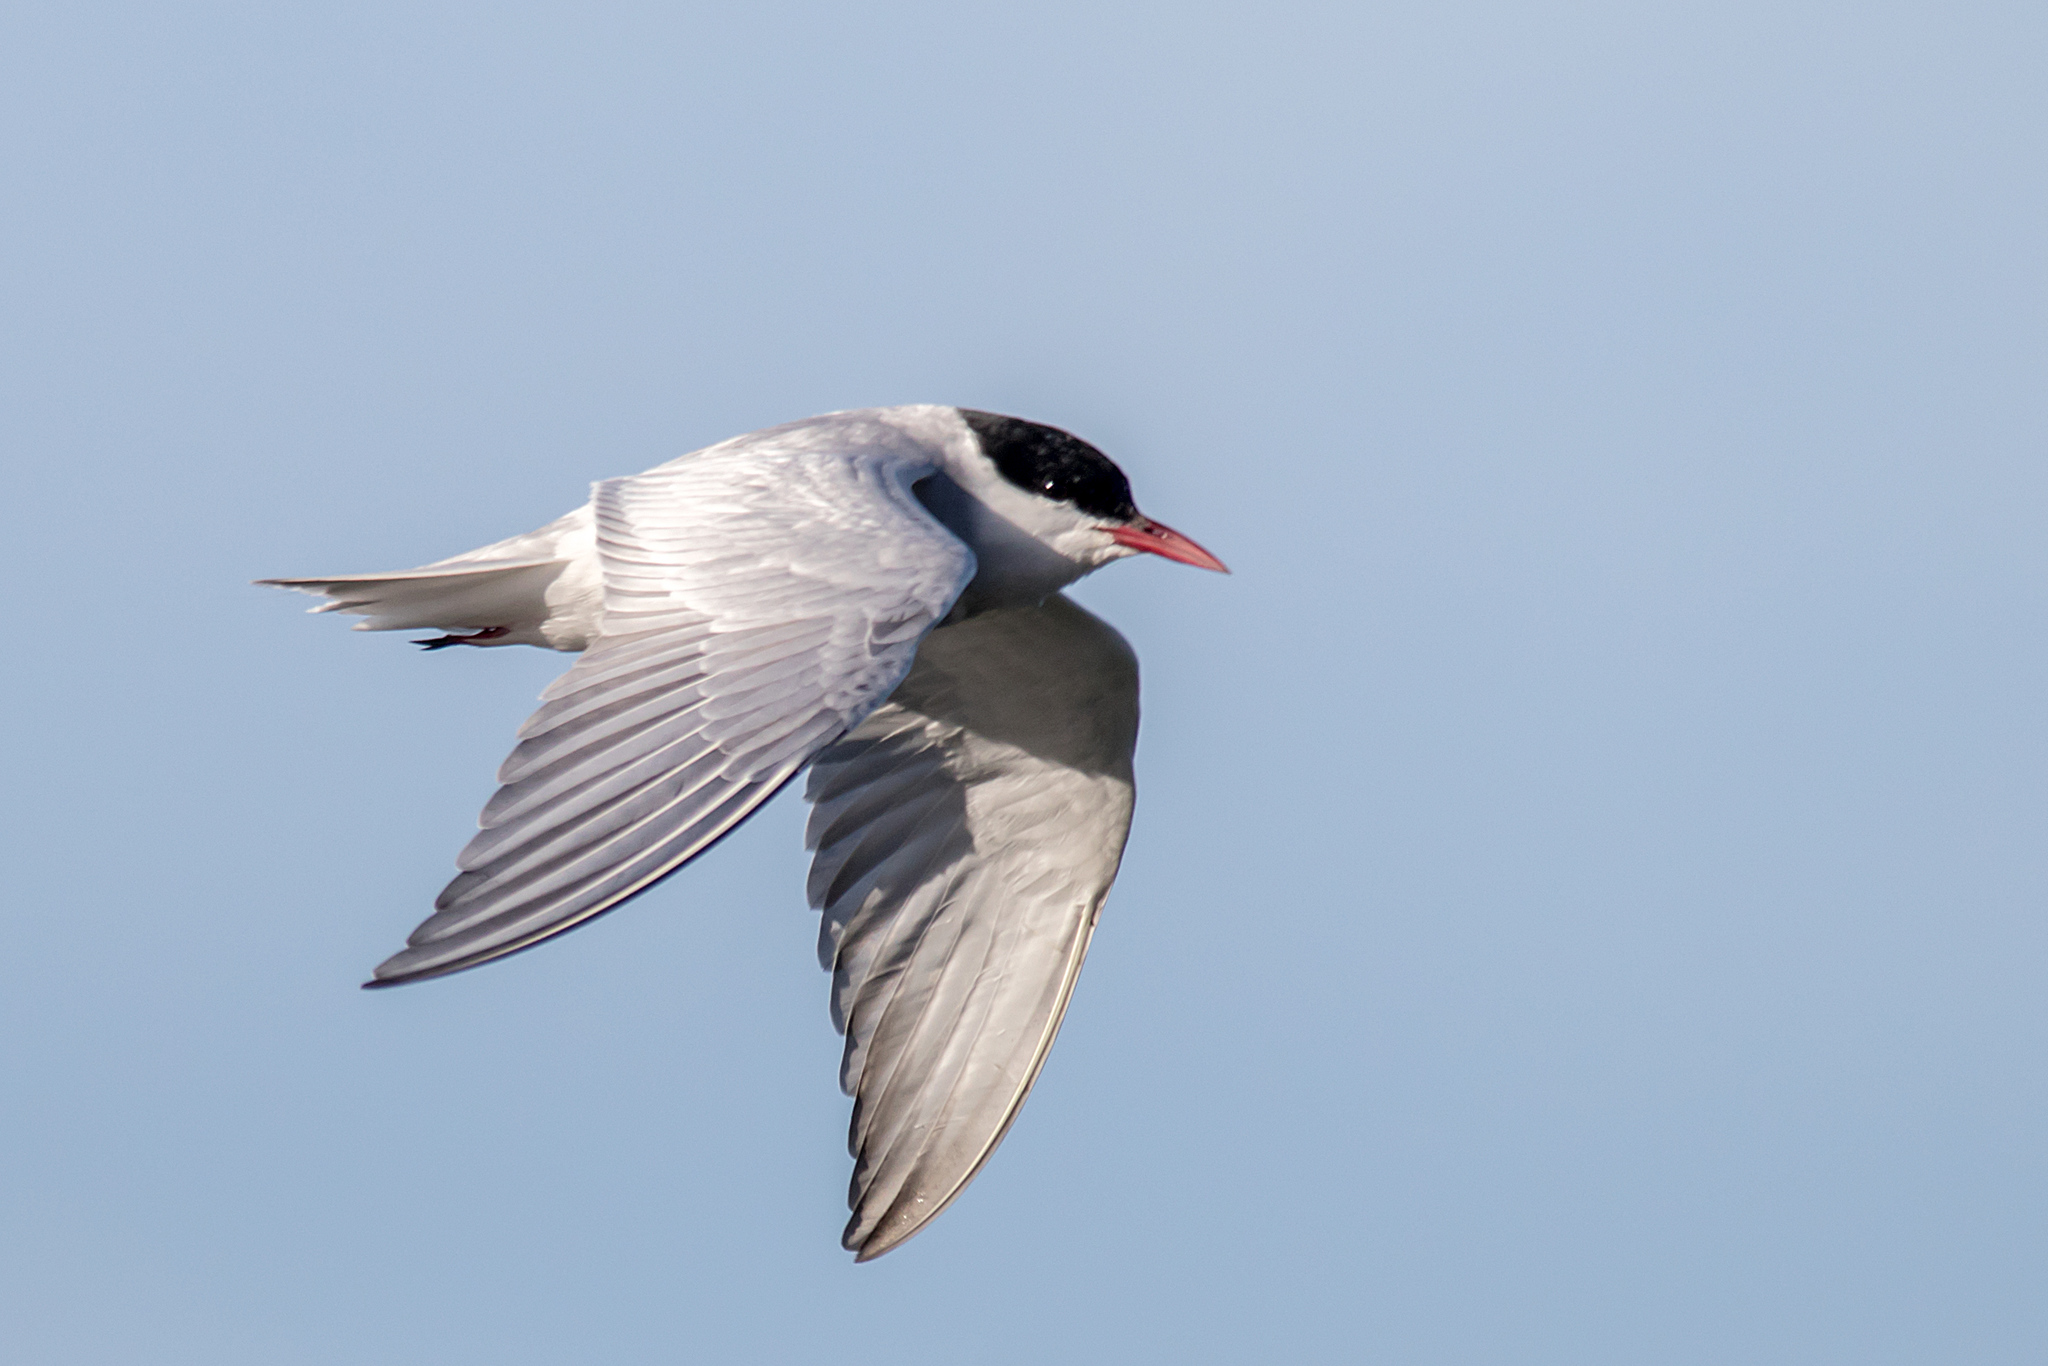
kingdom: Animalia
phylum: Chordata
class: Aves
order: Charadriiformes
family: Laridae
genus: Chlidonias
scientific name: Chlidonias hybrida
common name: Whiskered tern
